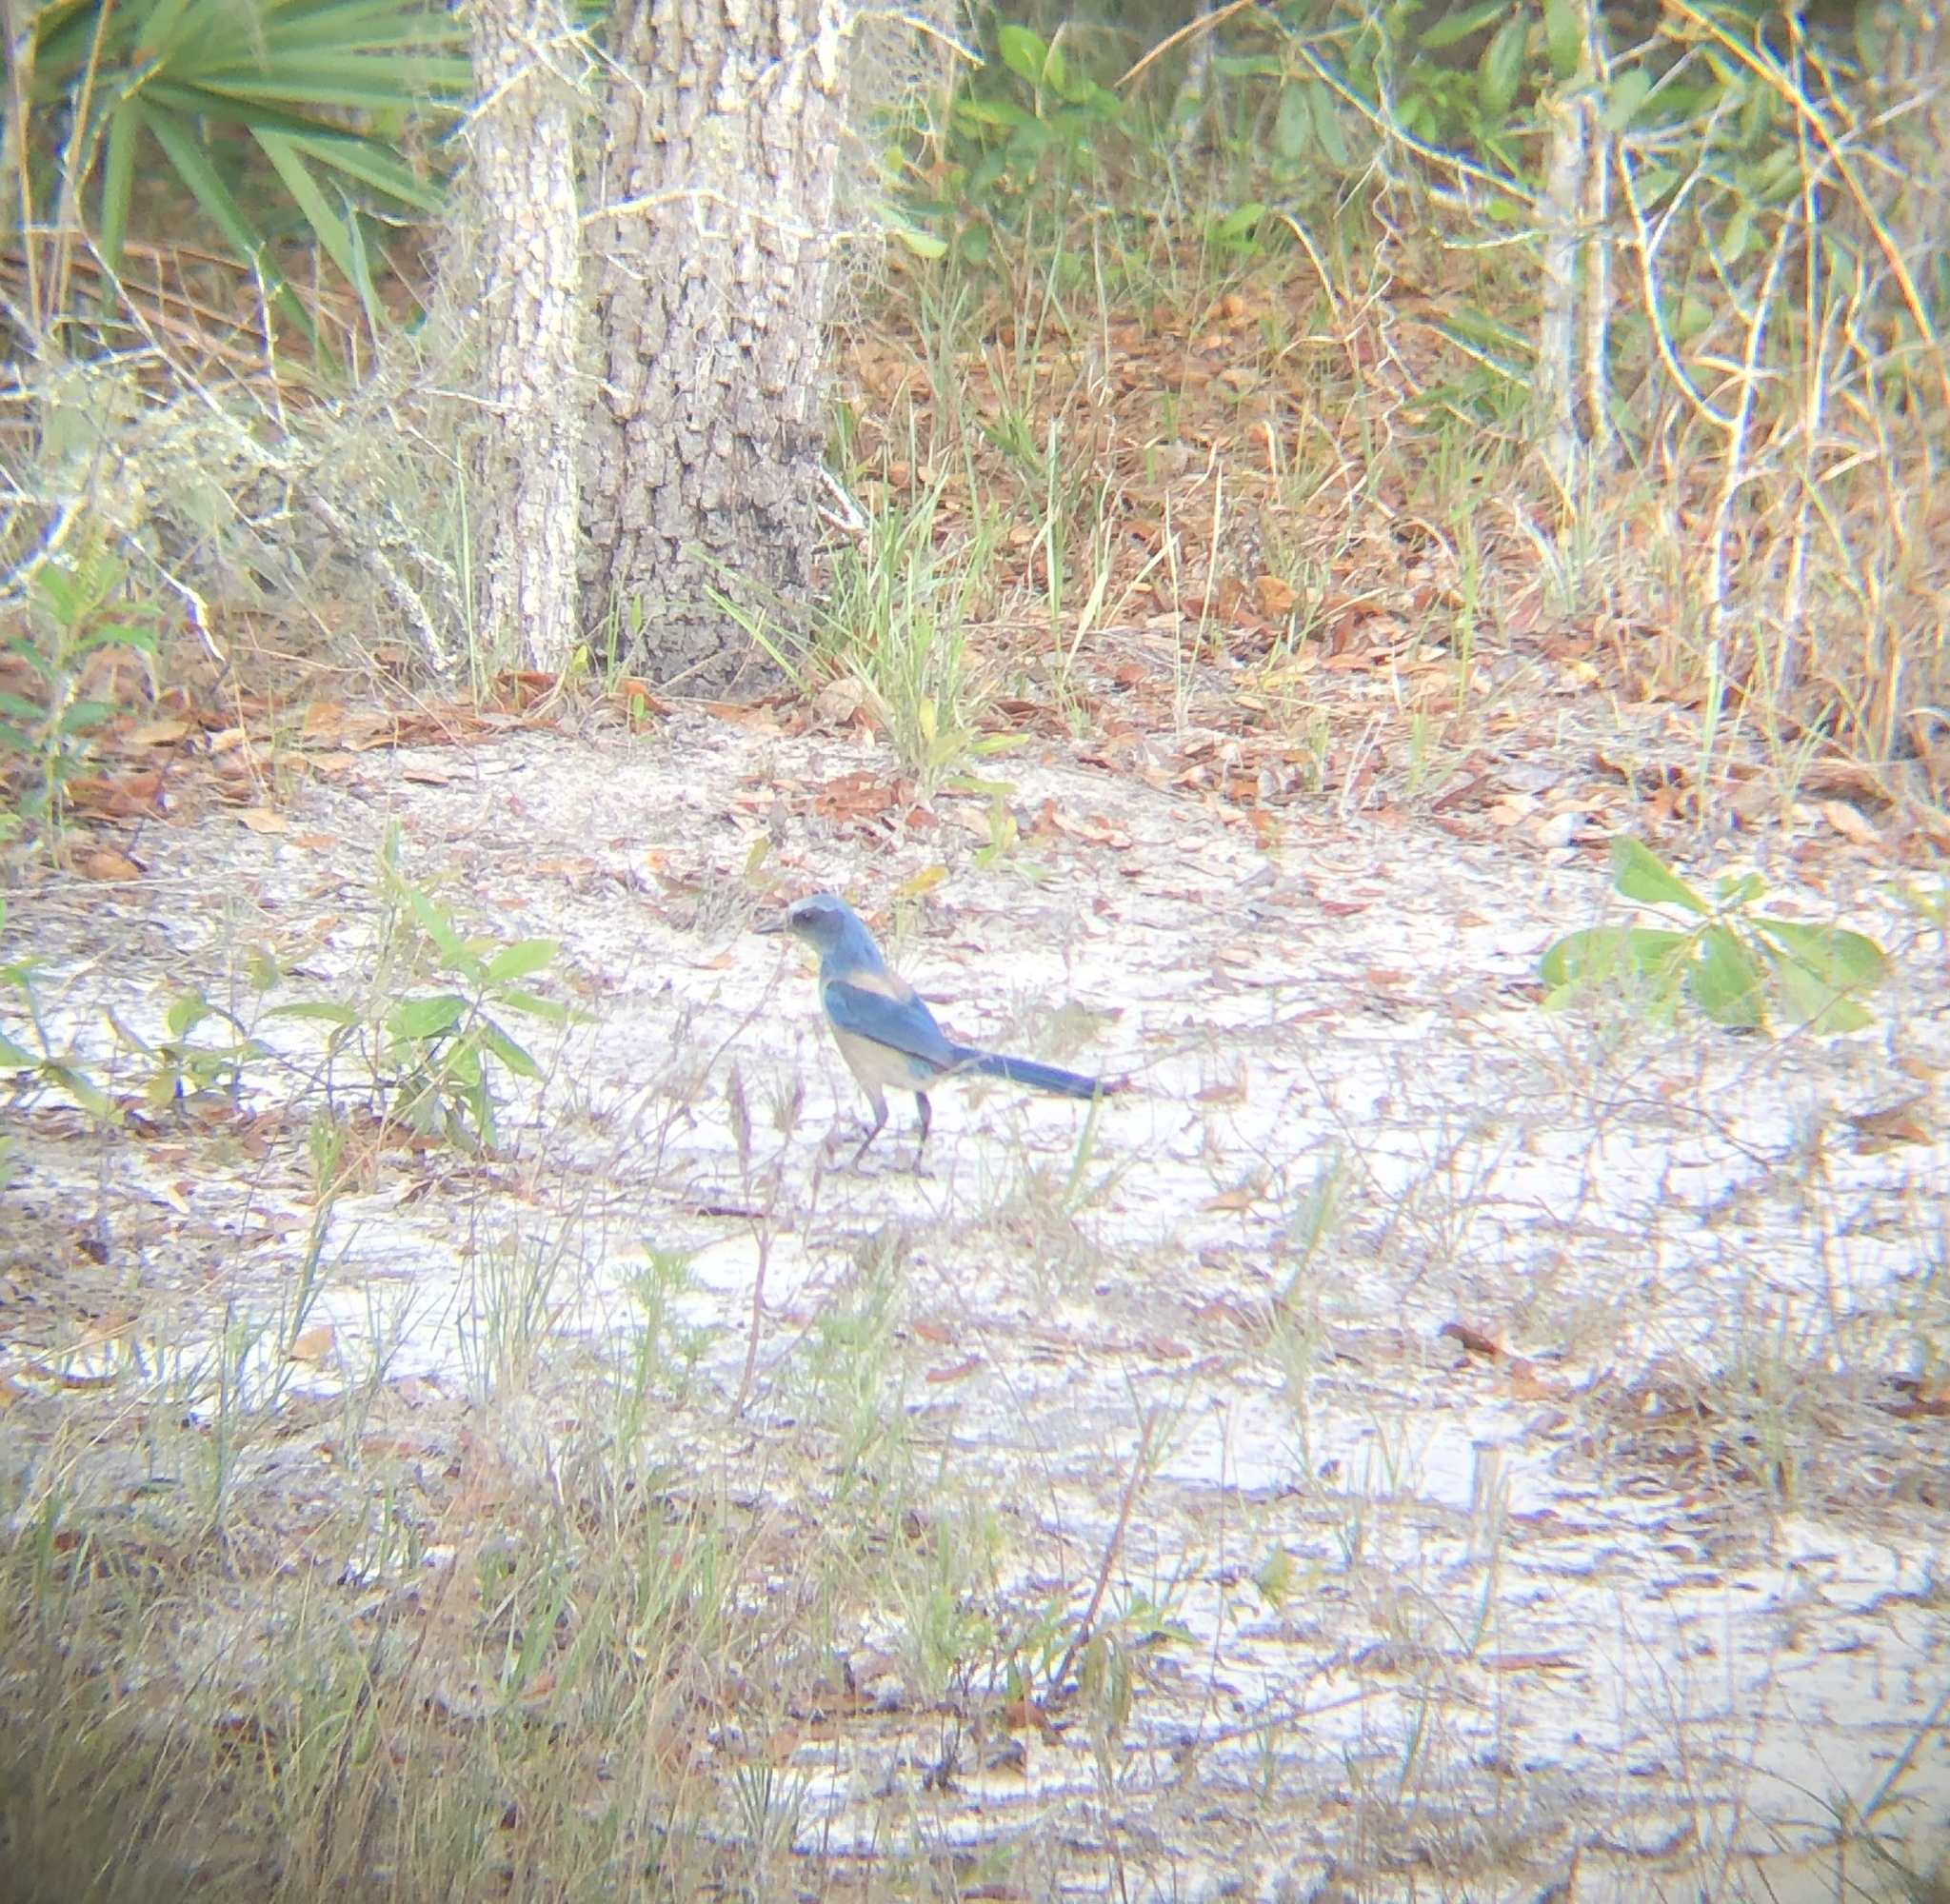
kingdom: Animalia
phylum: Chordata
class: Aves
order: Passeriformes
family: Corvidae
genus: Aphelocoma
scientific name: Aphelocoma coerulescens
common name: Florida scrub jay
